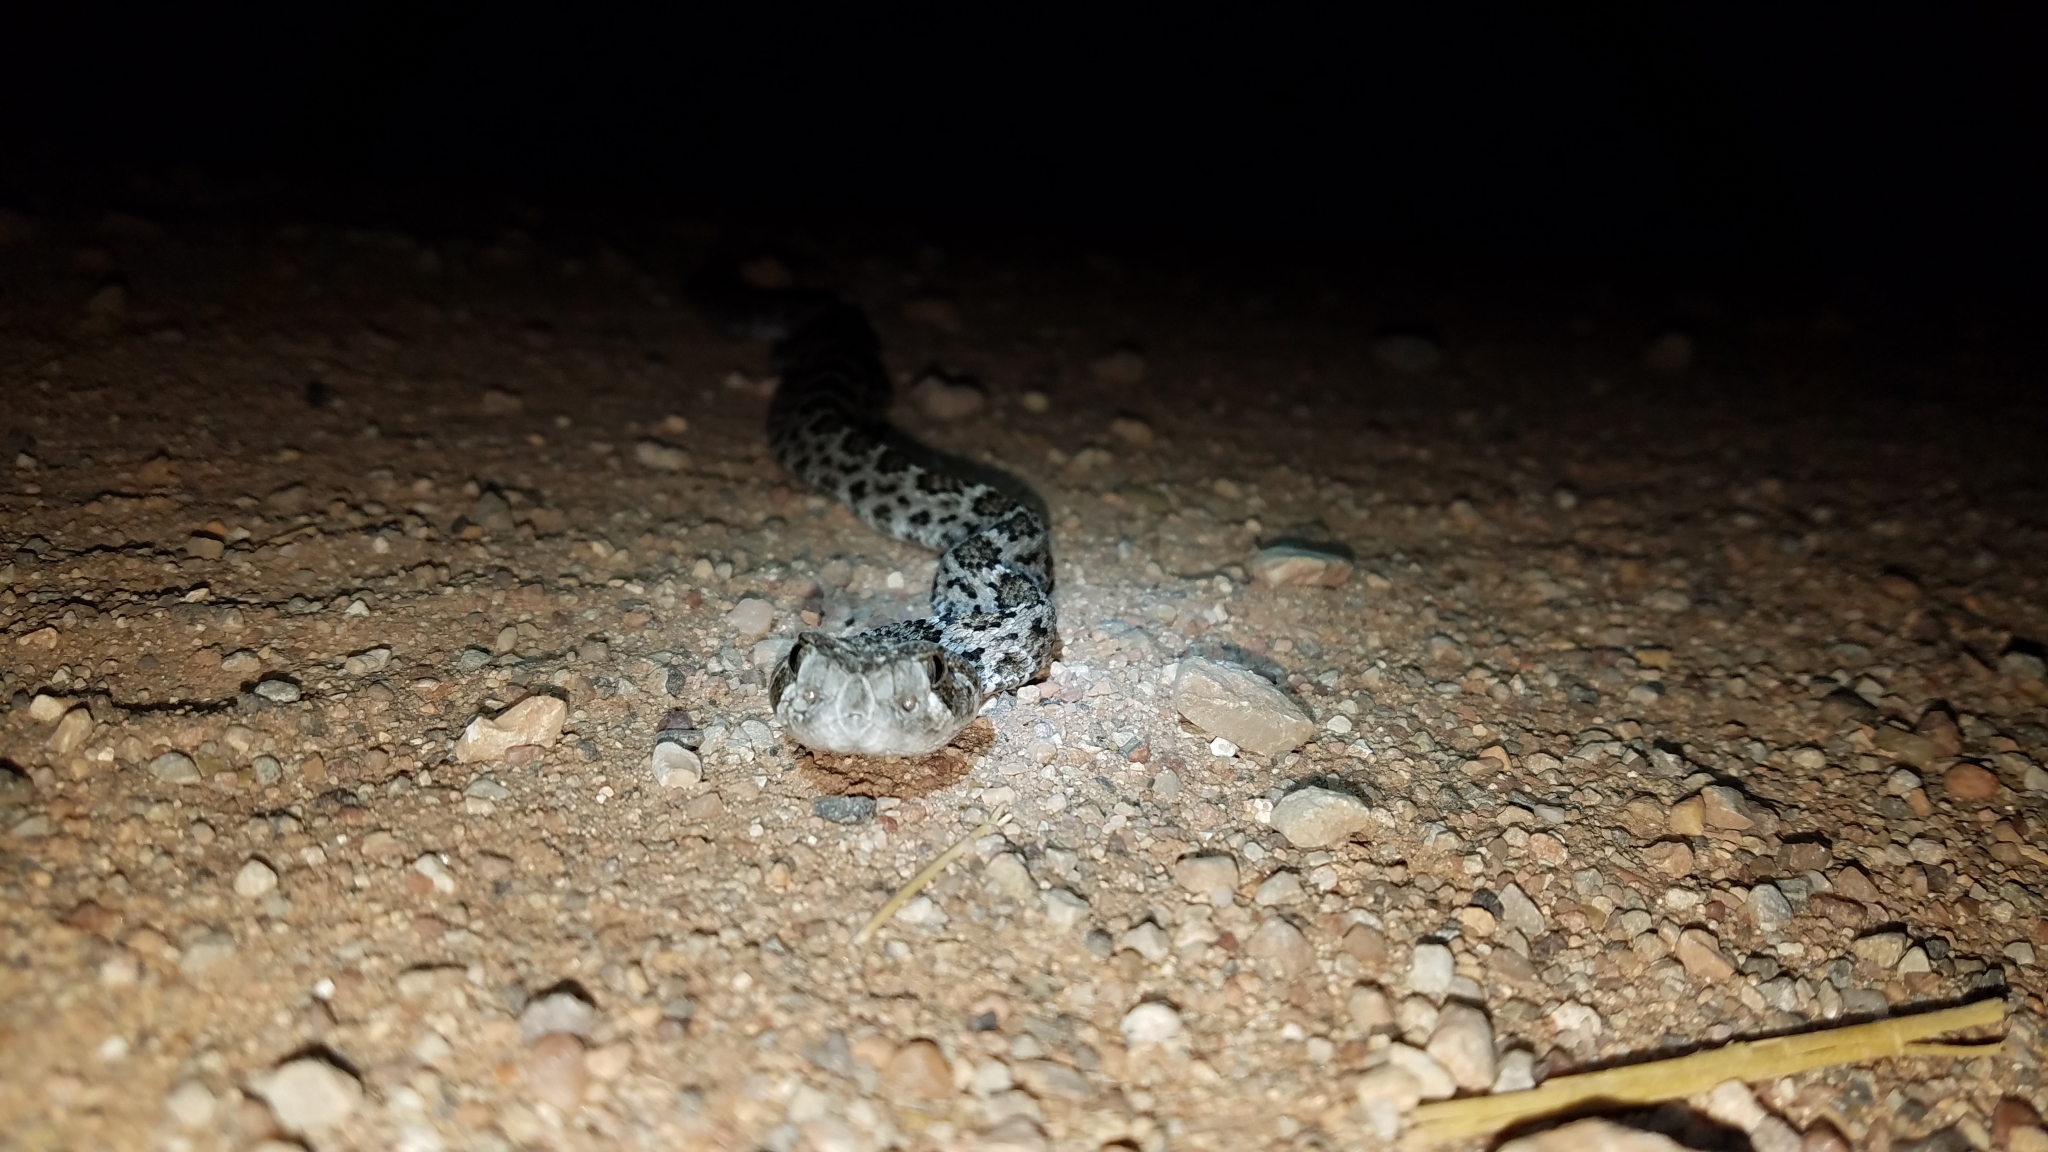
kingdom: Animalia
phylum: Chordata
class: Squamata
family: Viperidae
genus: Crotalus
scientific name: Crotalus atrox
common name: Western diamond-backed rattlesnake
